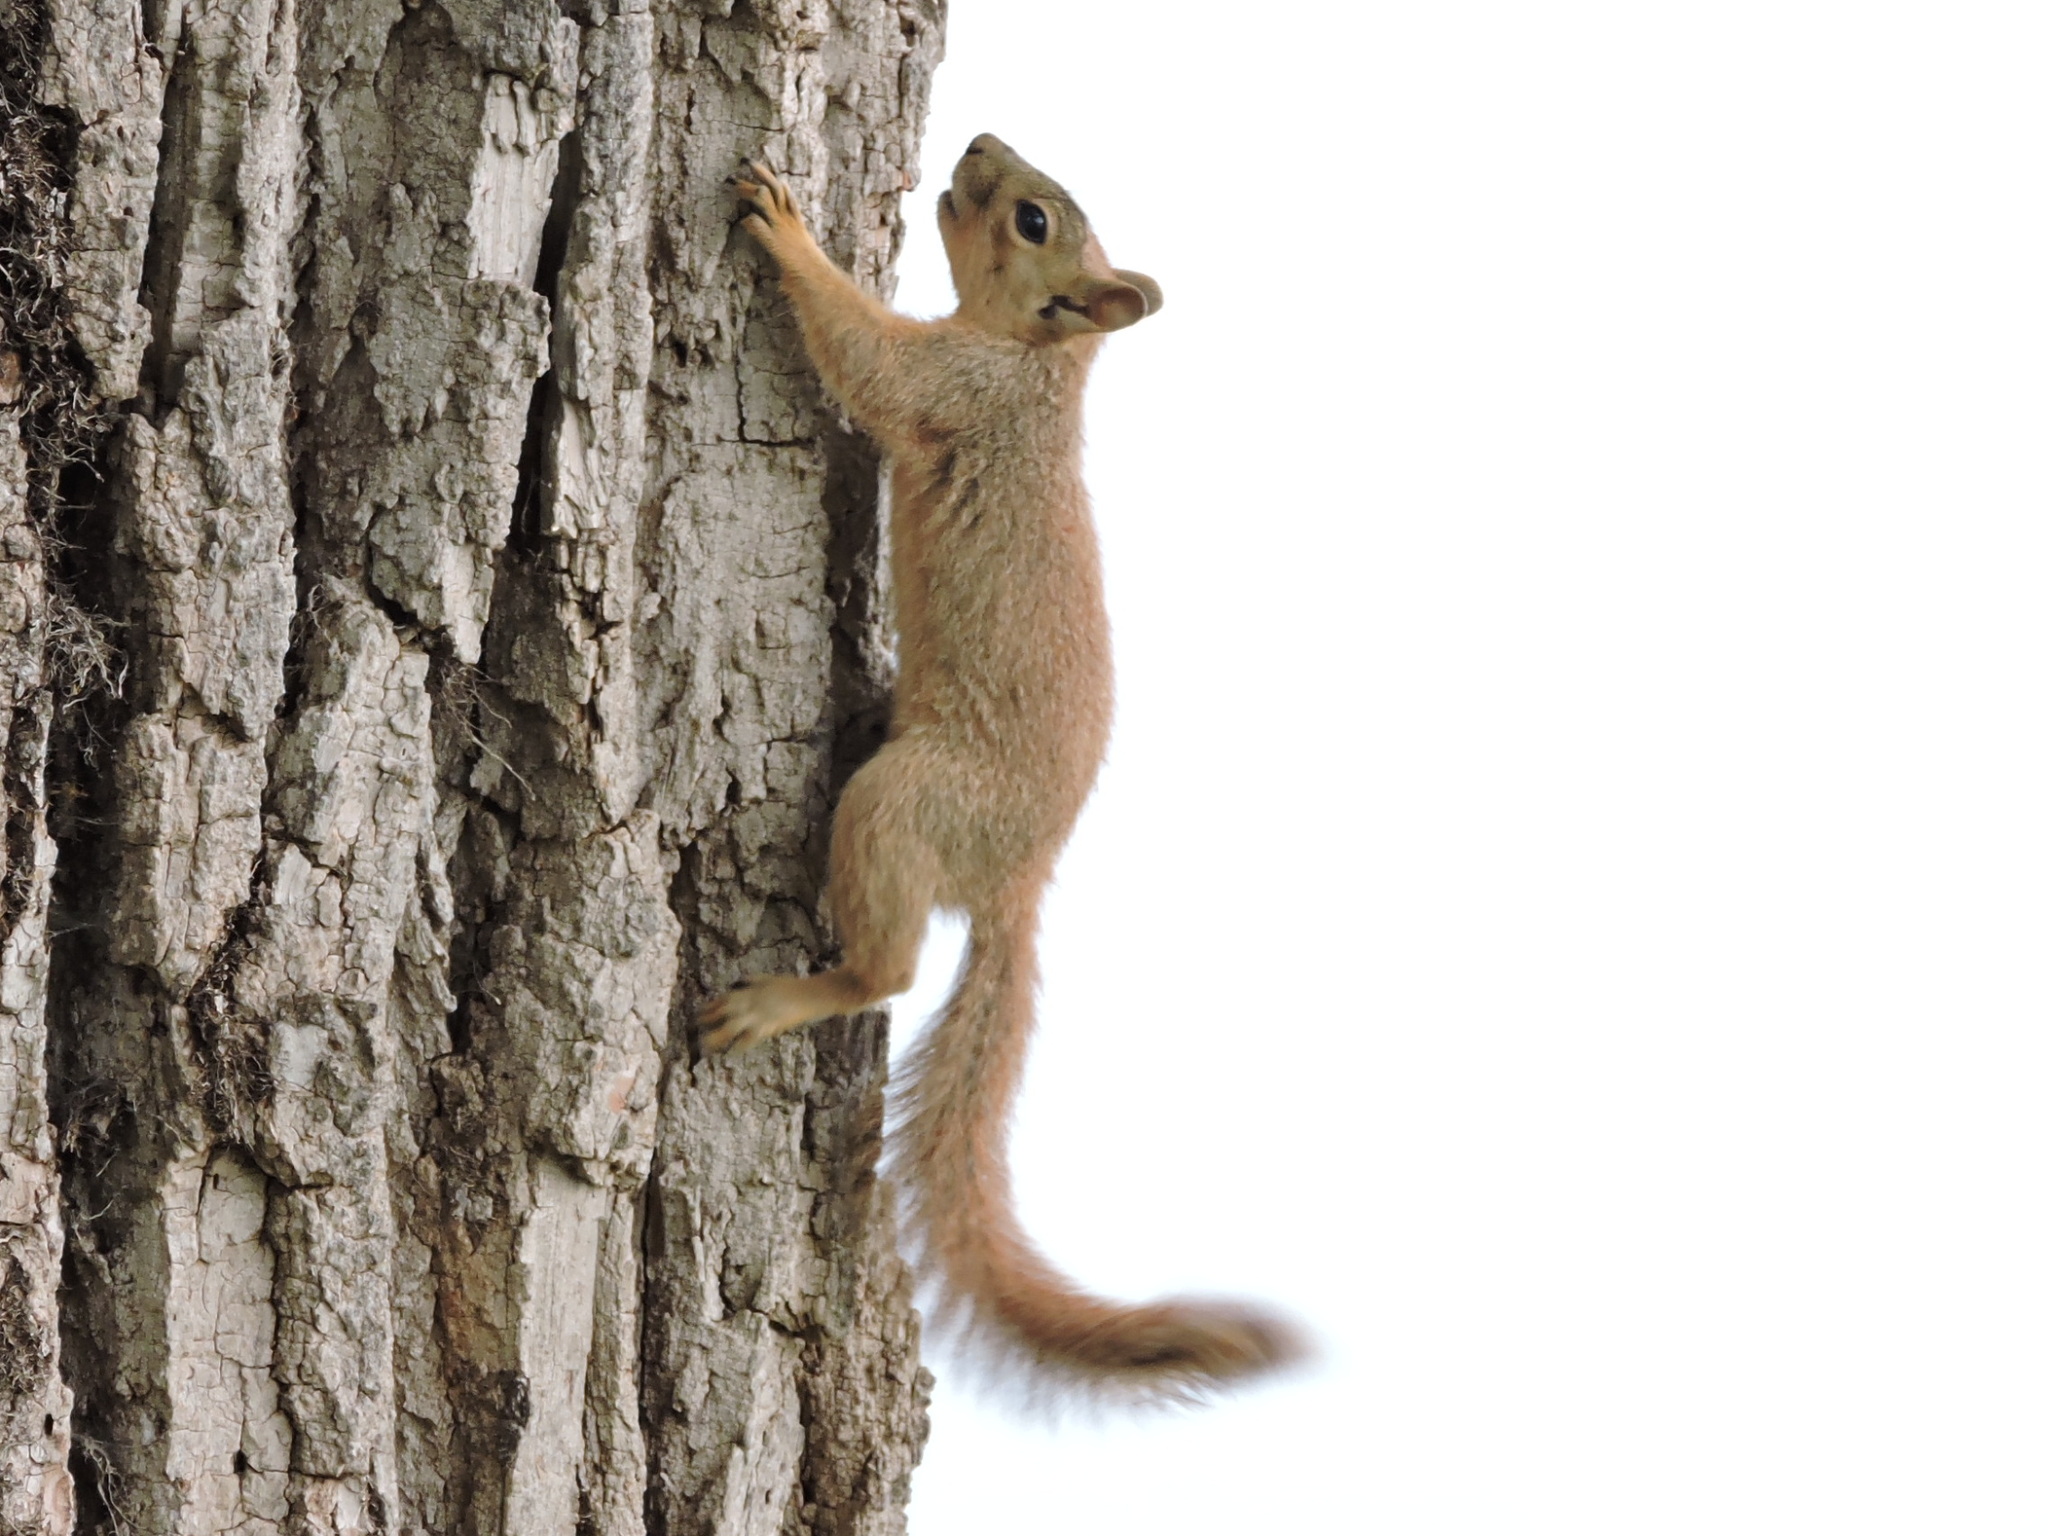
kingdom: Animalia
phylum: Chordata
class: Mammalia
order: Rodentia
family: Sciuridae
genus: Sciurus
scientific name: Sciurus niger
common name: Fox squirrel
